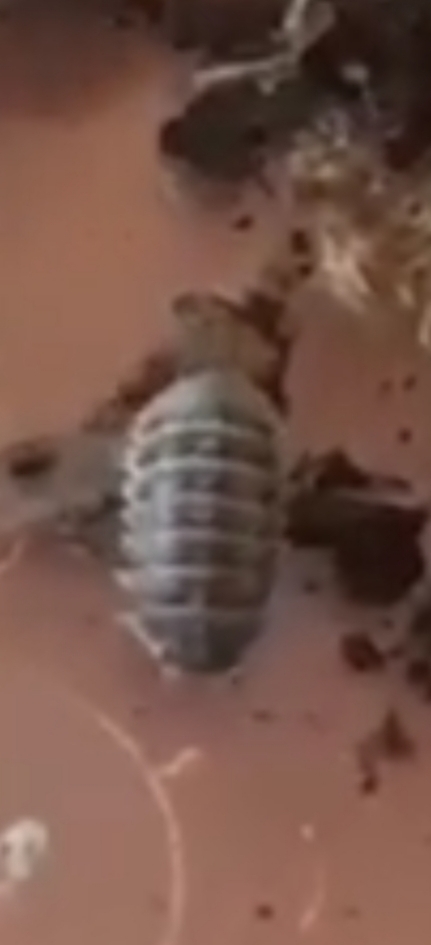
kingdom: Animalia
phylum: Arthropoda
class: Malacostraca
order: Isopoda
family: Armadillidiidae
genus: Armadillidium
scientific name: Armadillidium vulgare
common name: Common pill woodlouse
